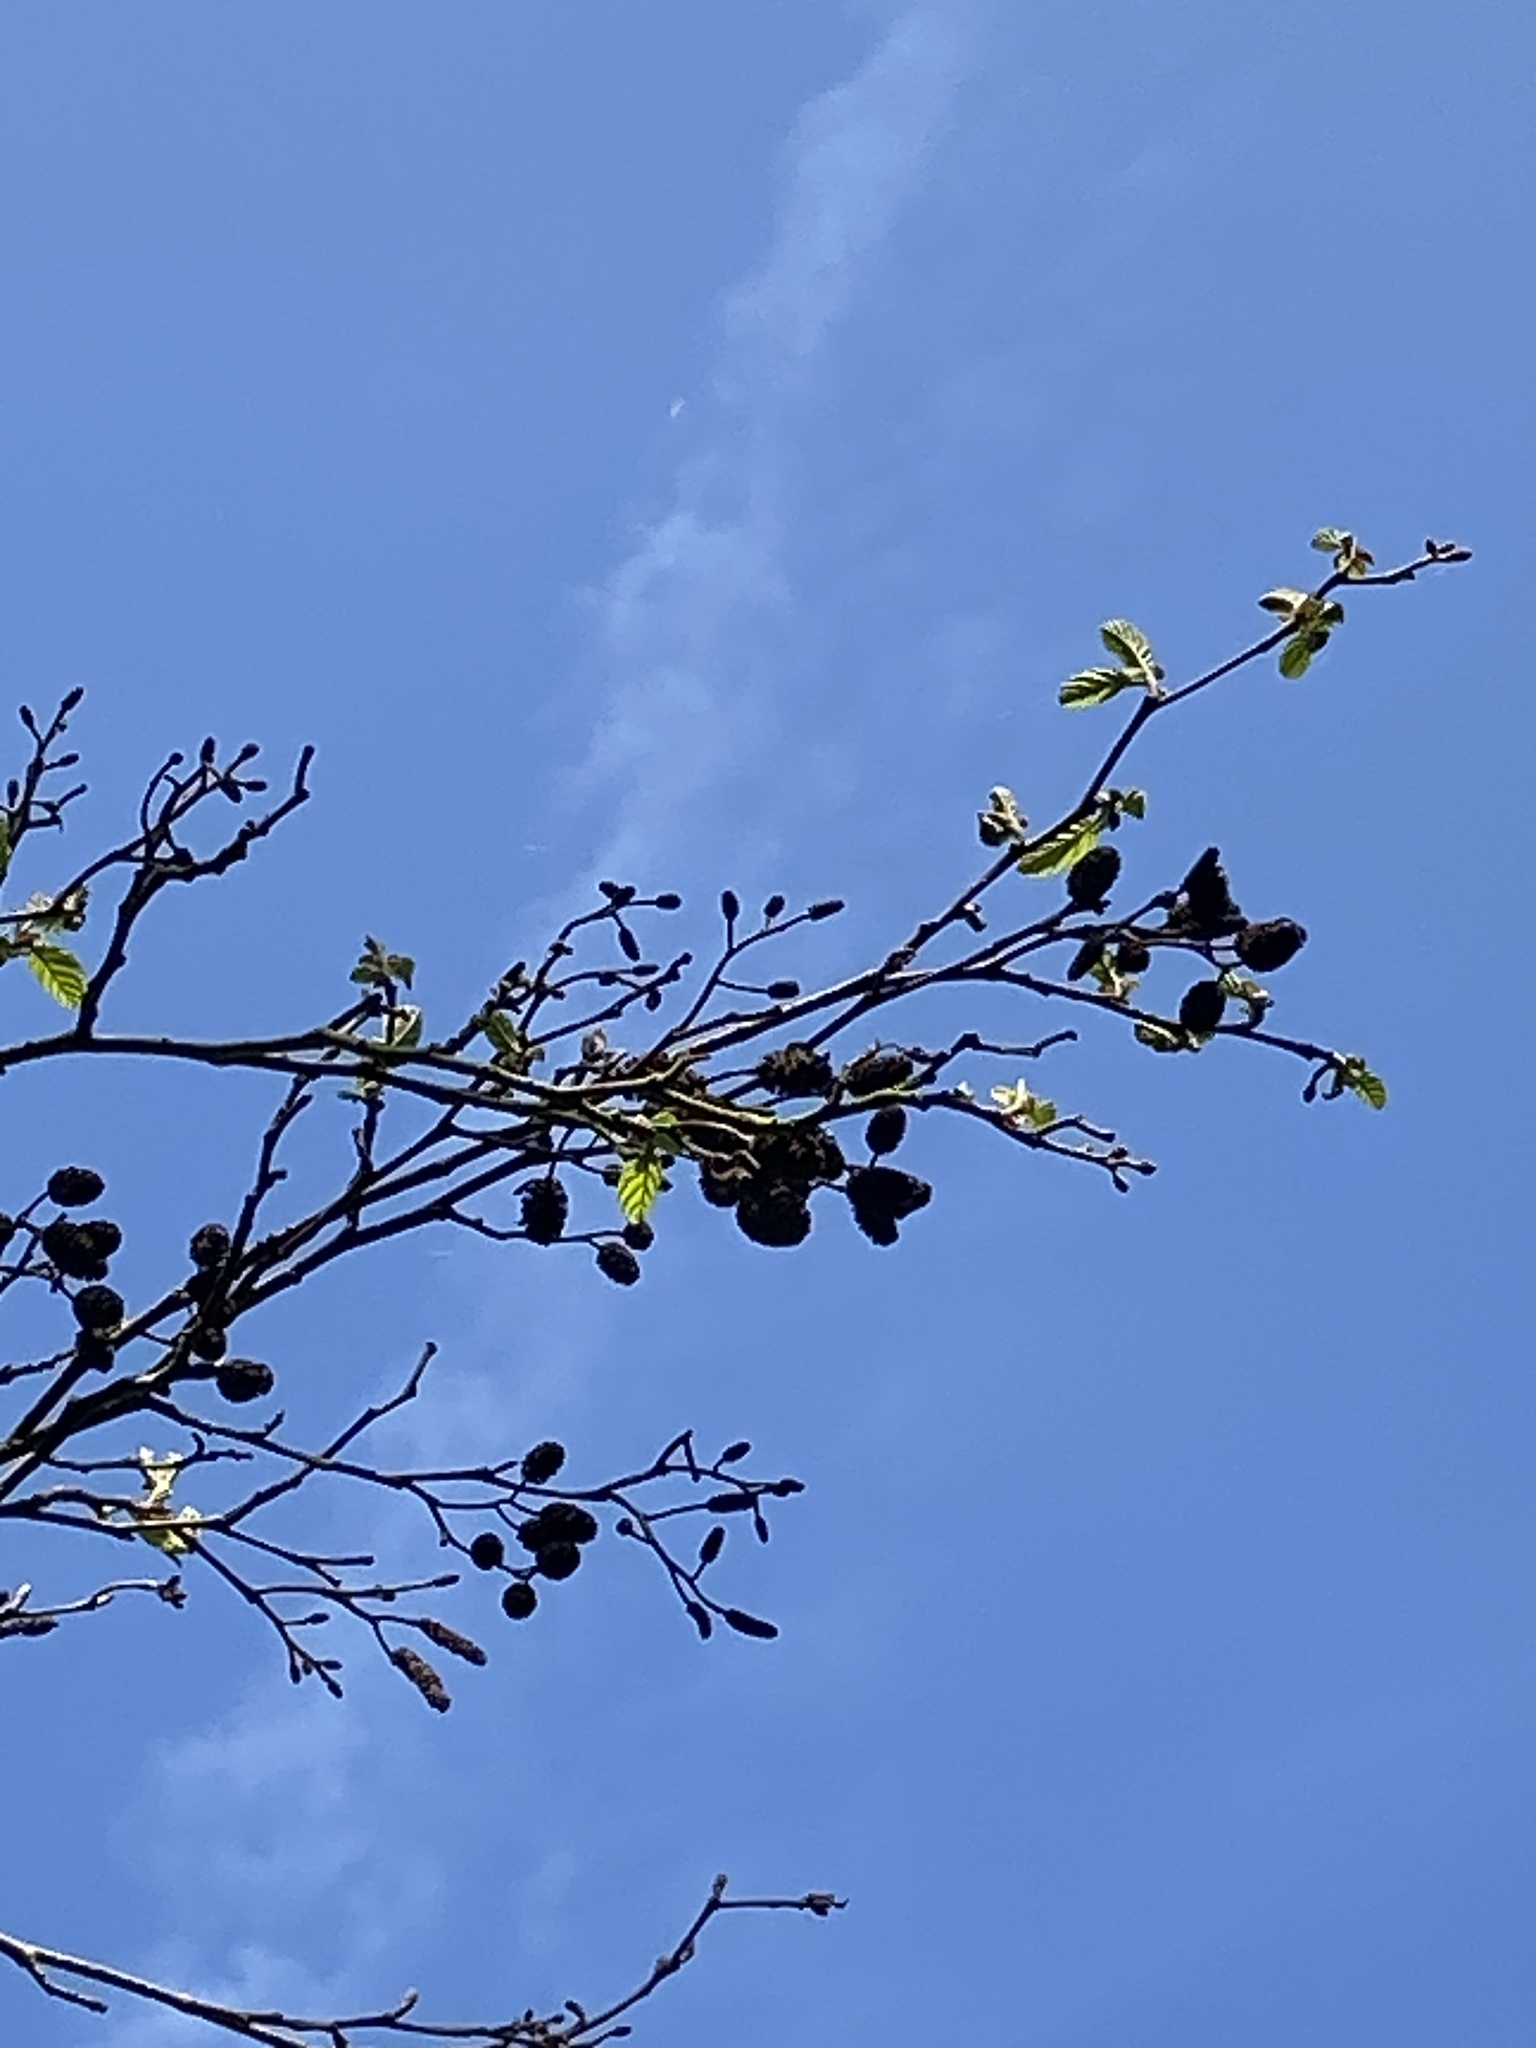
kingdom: Plantae
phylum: Tracheophyta
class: Magnoliopsida
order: Fagales
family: Betulaceae
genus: Alnus
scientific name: Alnus glutinosa
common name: Black alder
